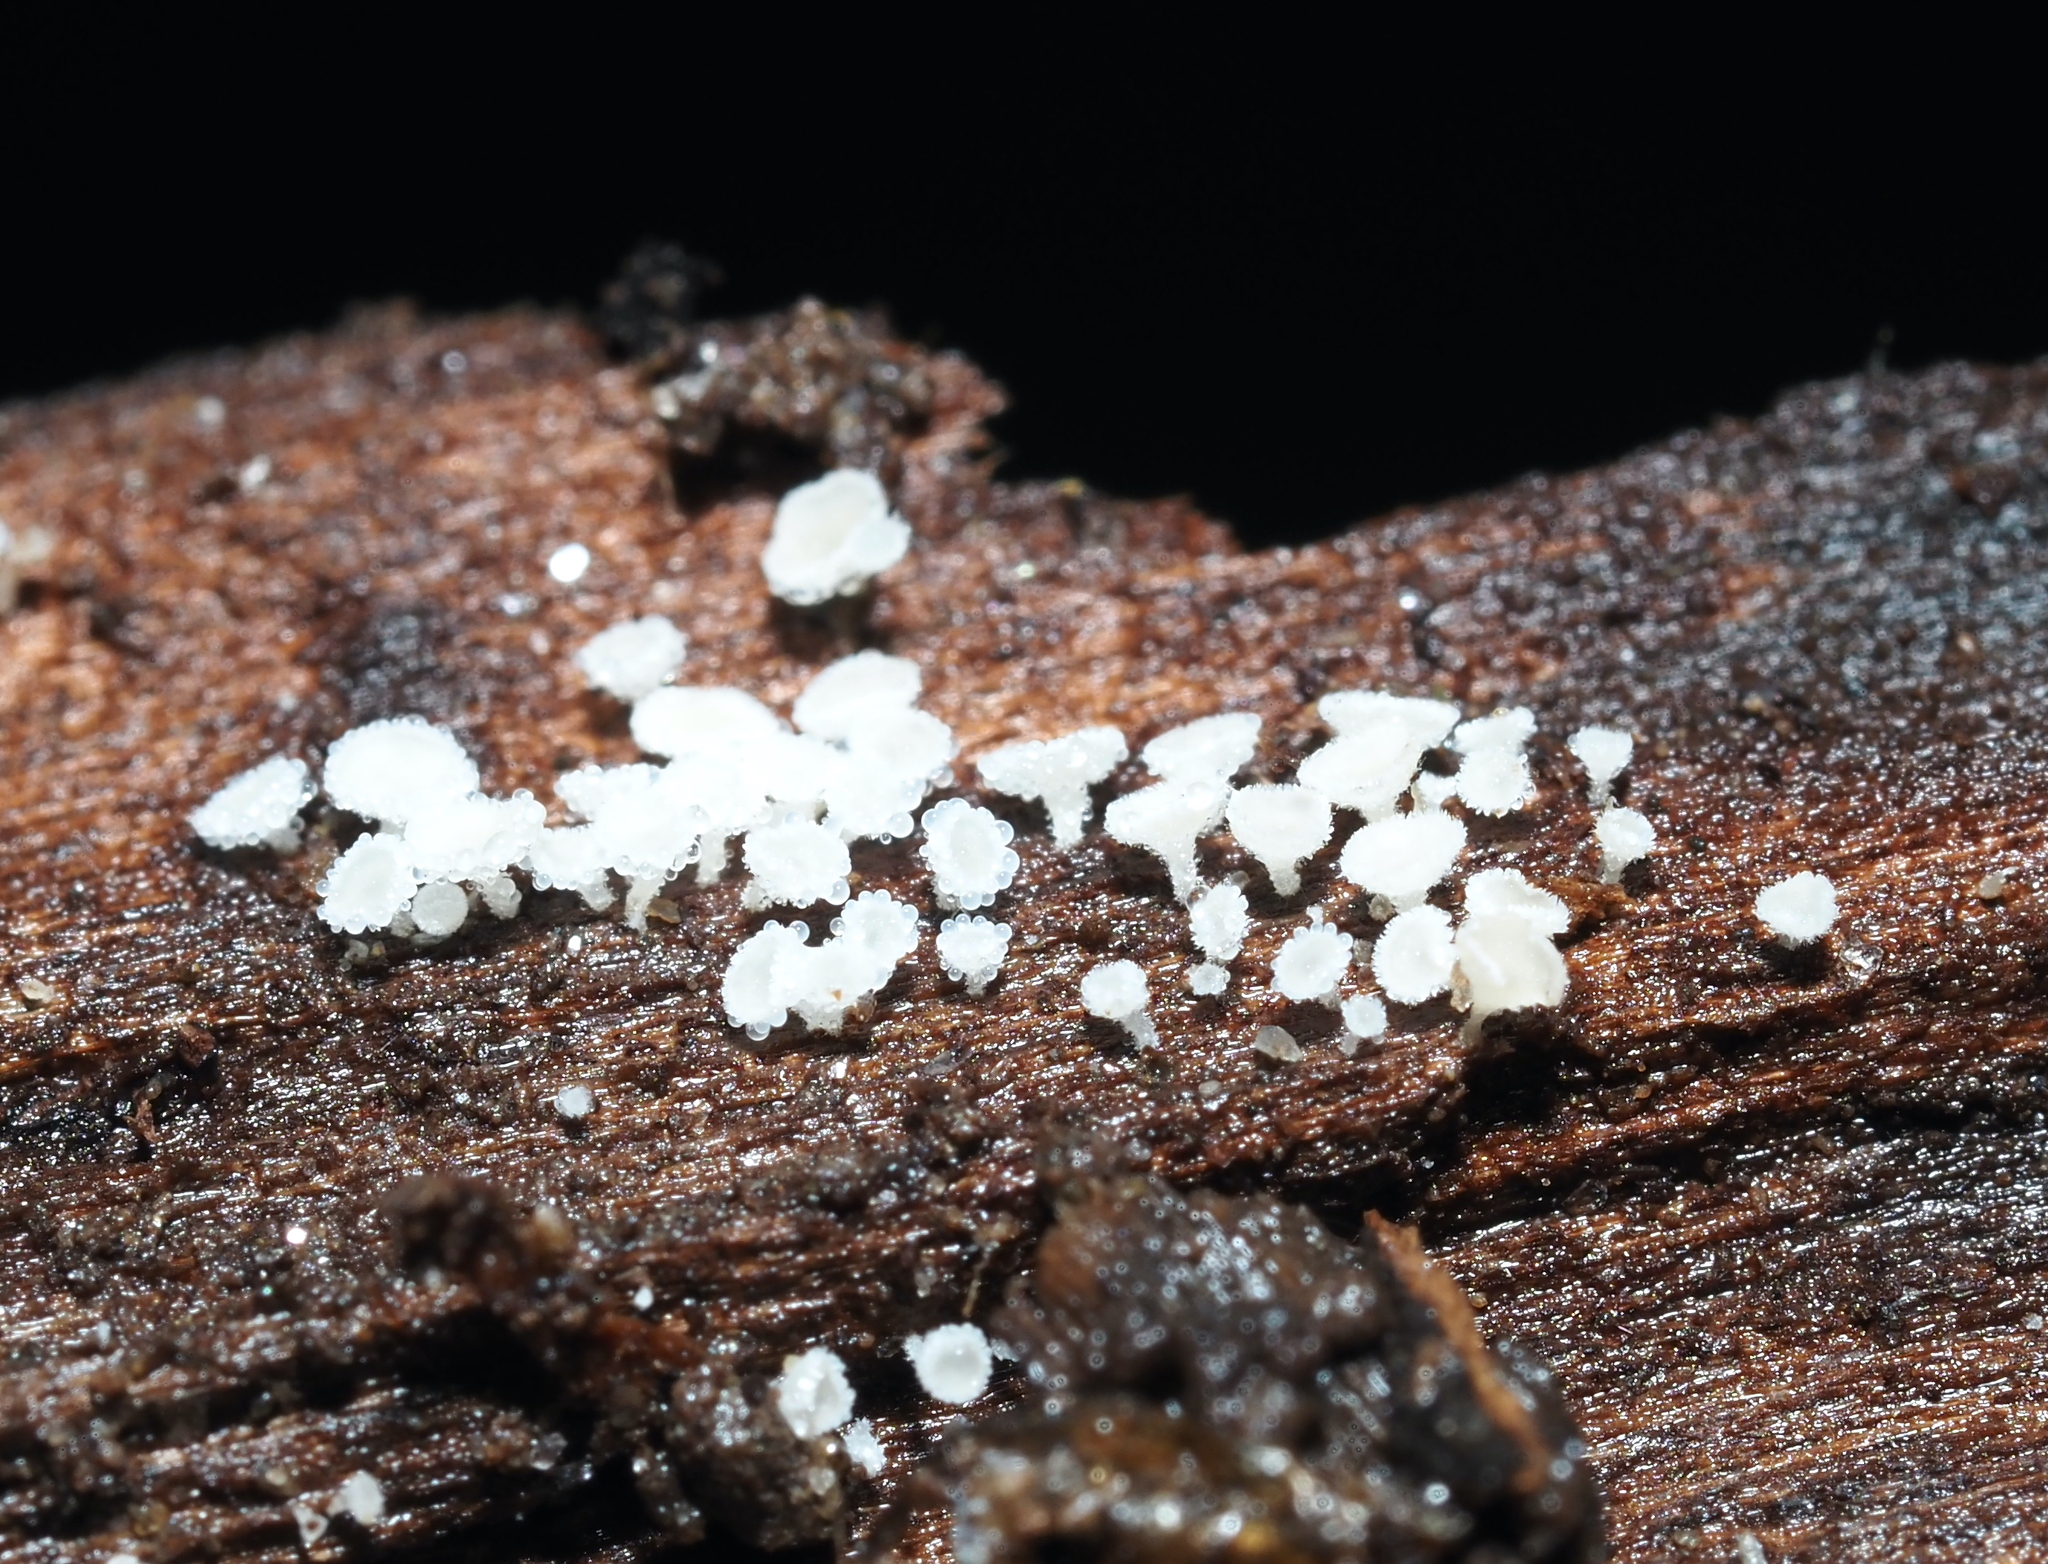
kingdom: Fungi
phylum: Ascomycota
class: Leotiomycetes
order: Helotiales
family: Lachnaceae
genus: Lachnum
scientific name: Lachnum virgineum
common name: Snowy disco
